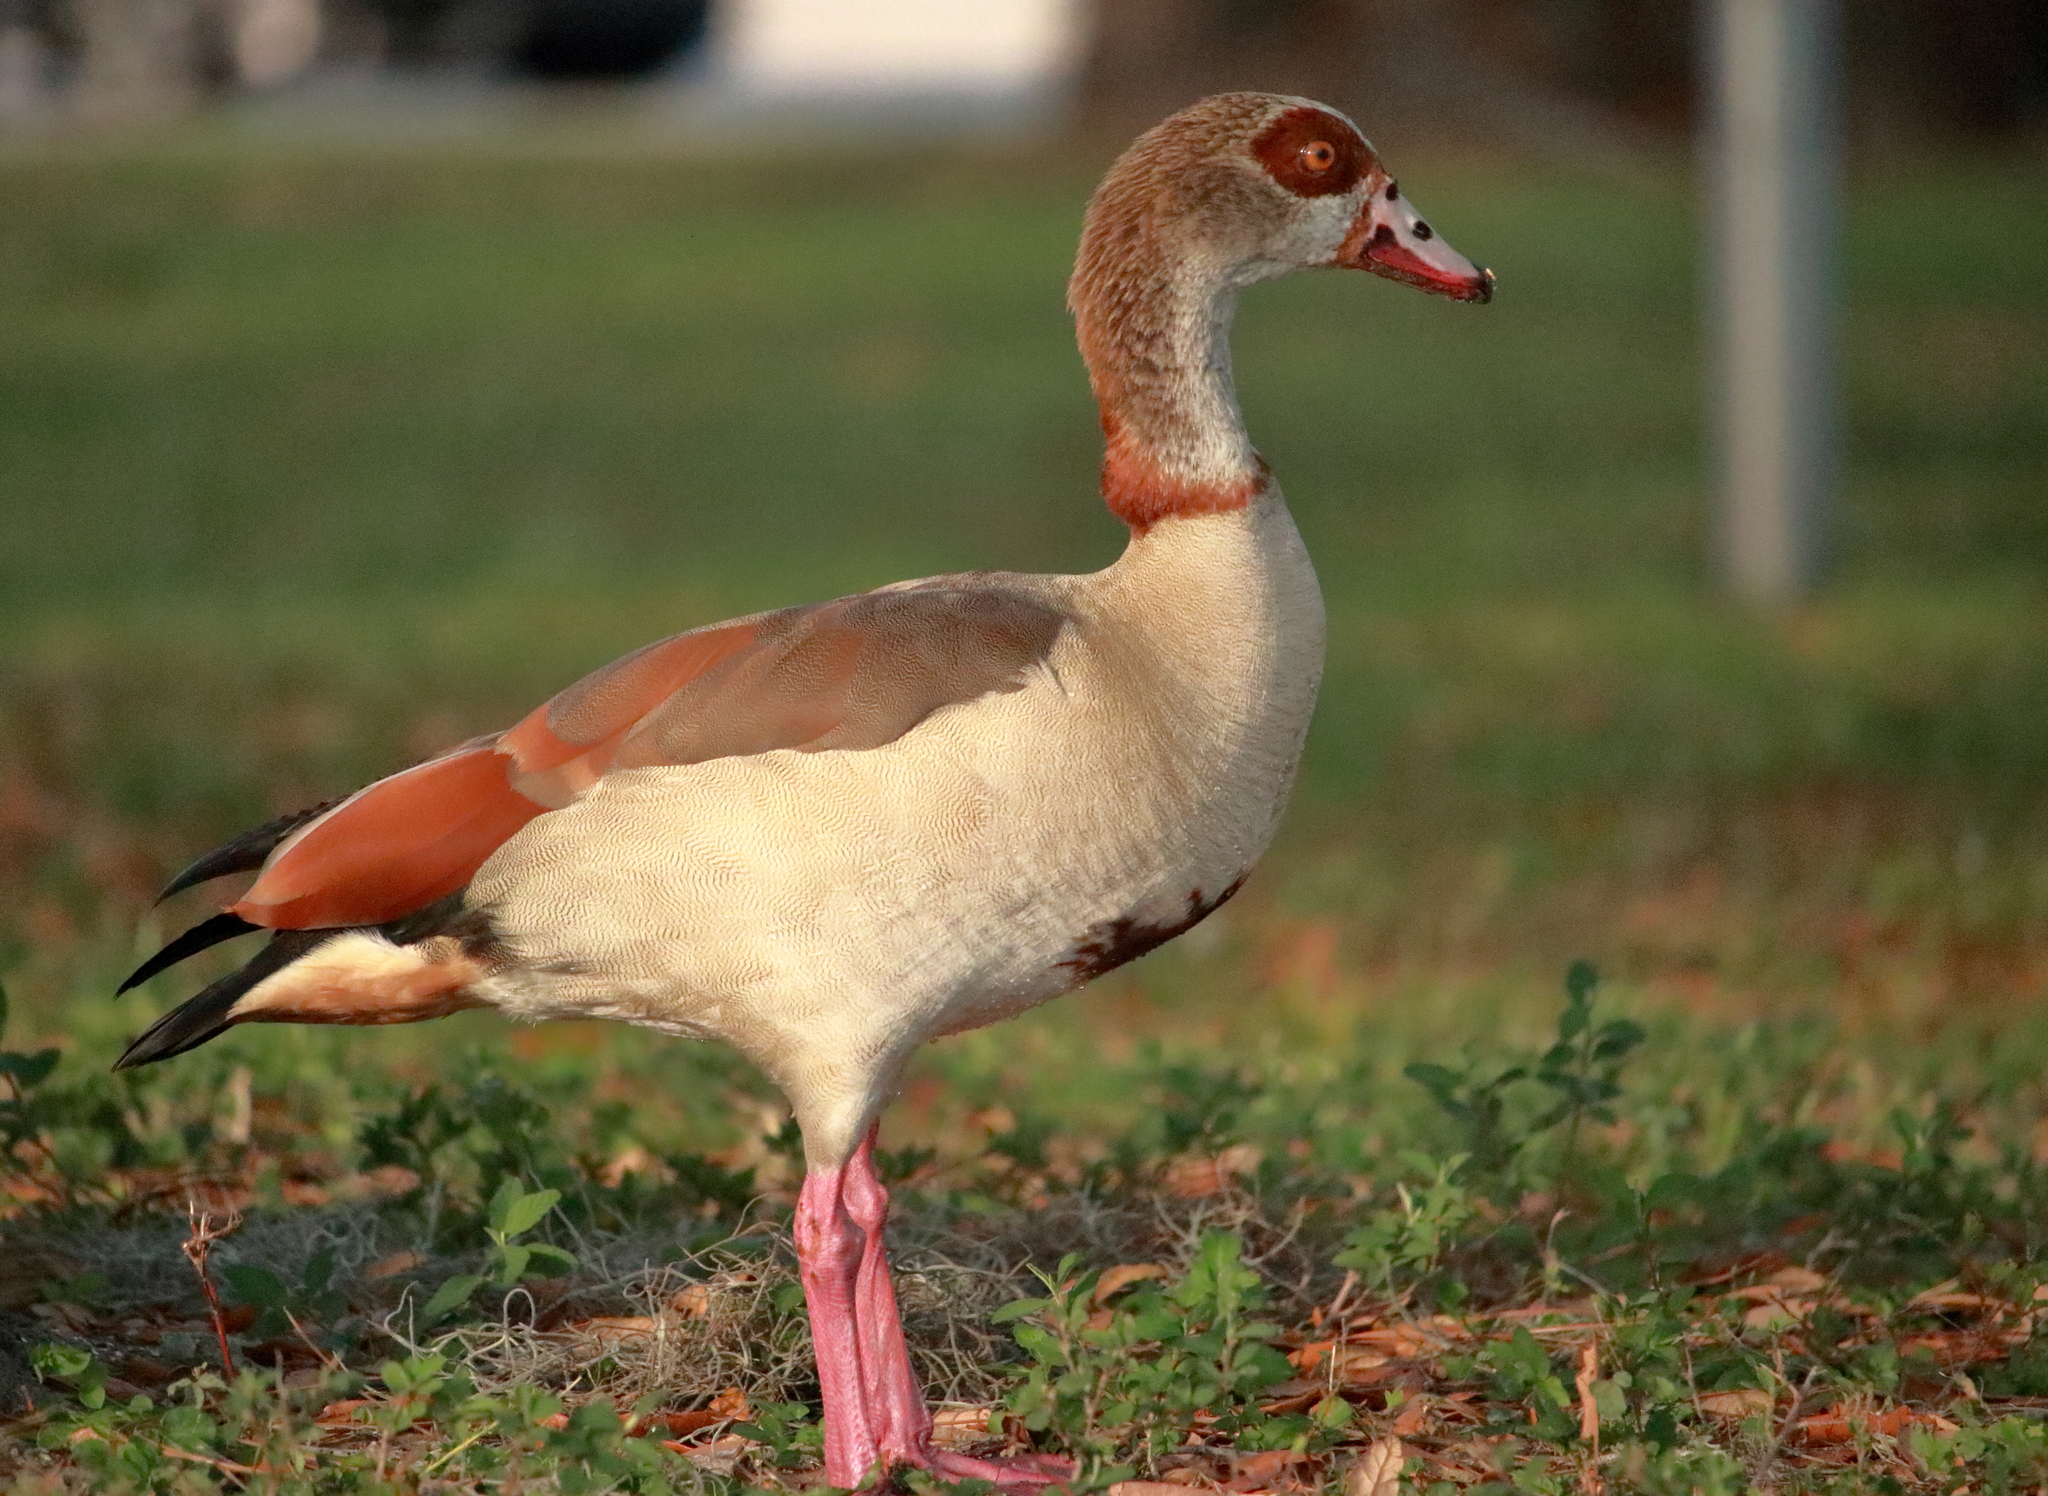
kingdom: Animalia
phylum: Chordata
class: Aves
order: Anseriformes
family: Anatidae
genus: Alopochen
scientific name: Alopochen aegyptiaca
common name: Egyptian goose
